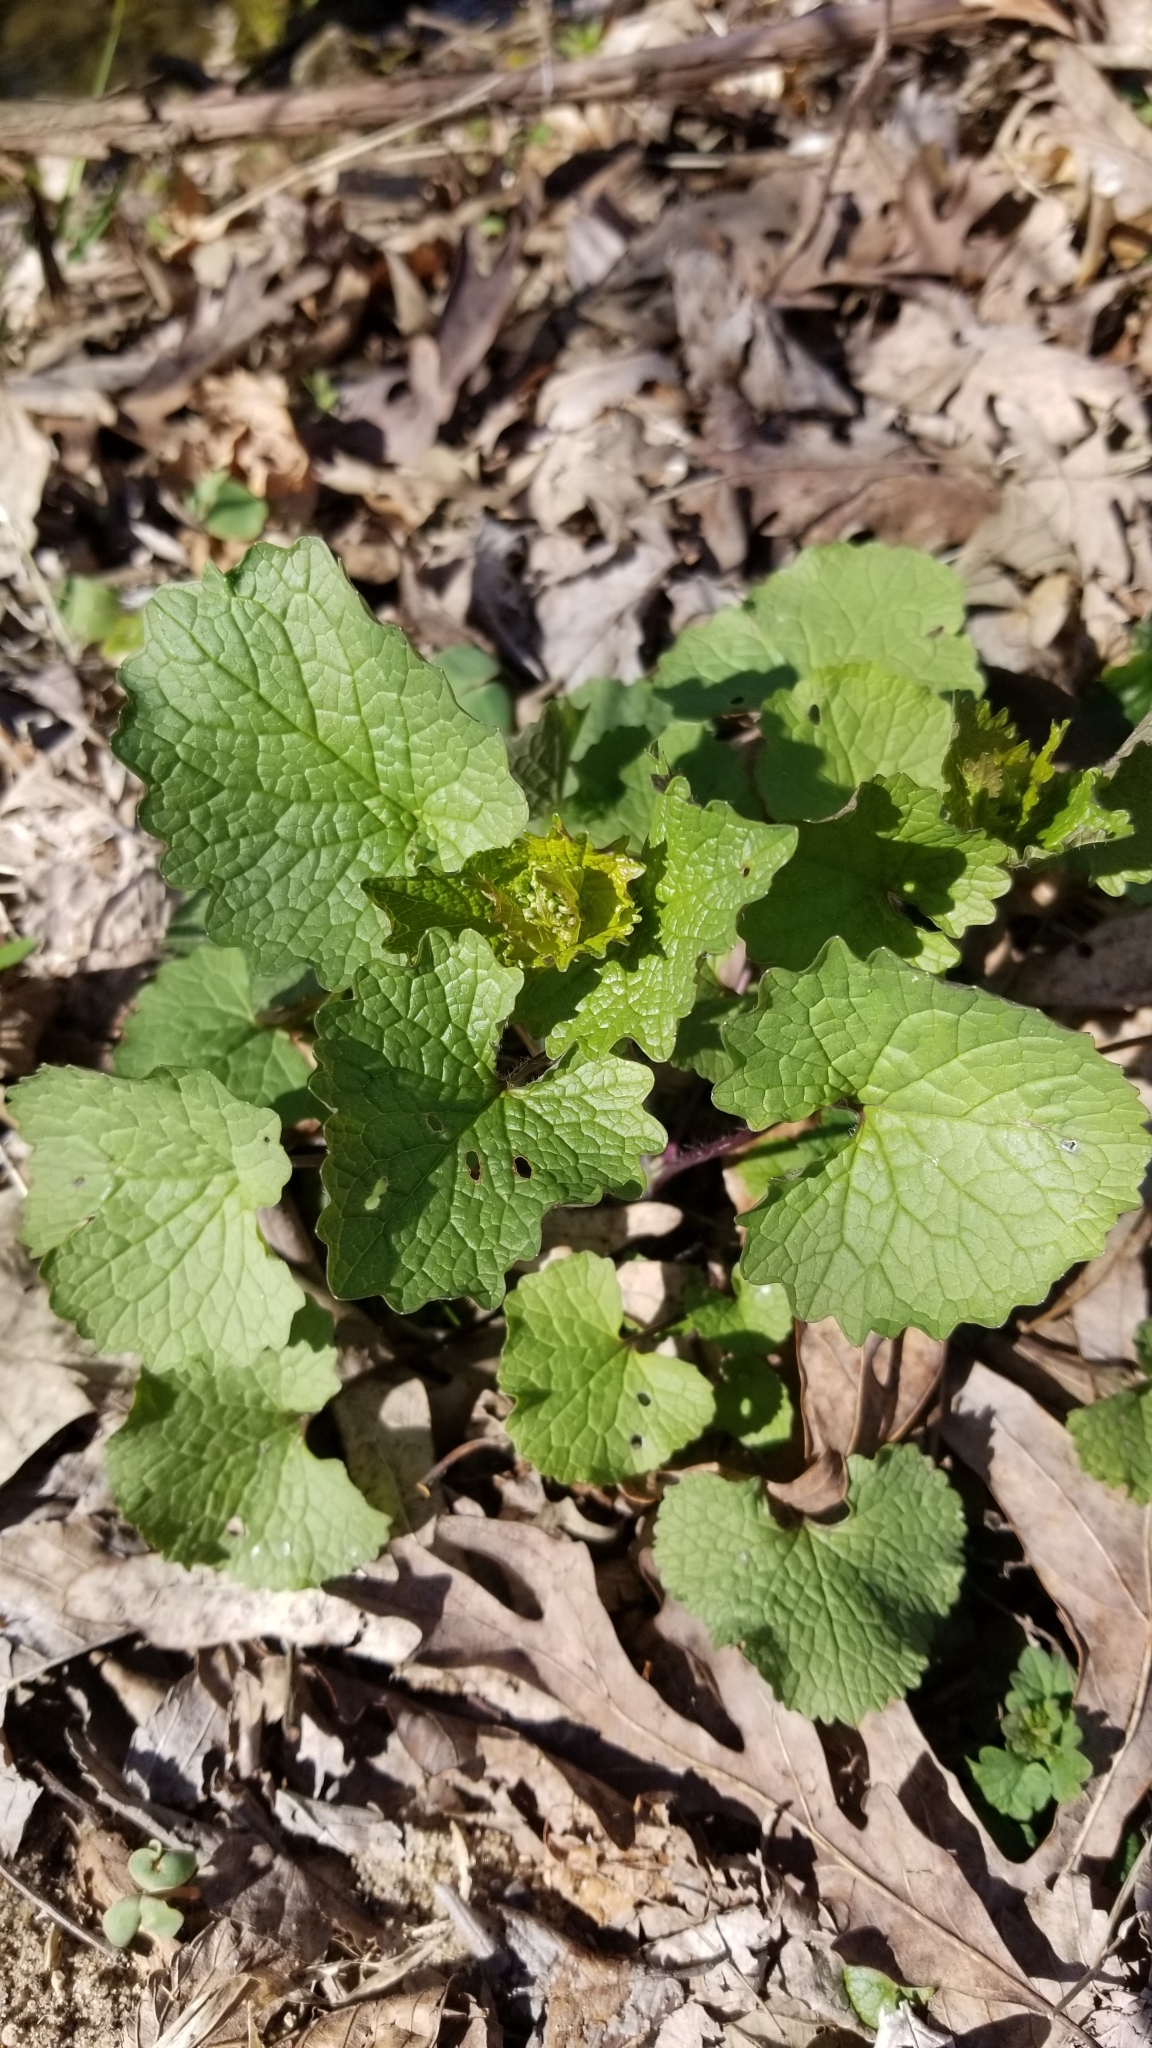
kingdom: Plantae
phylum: Tracheophyta
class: Magnoliopsida
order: Brassicales
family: Brassicaceae
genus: Alliaria
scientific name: Alliaria petiolata
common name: Garlic mustard
